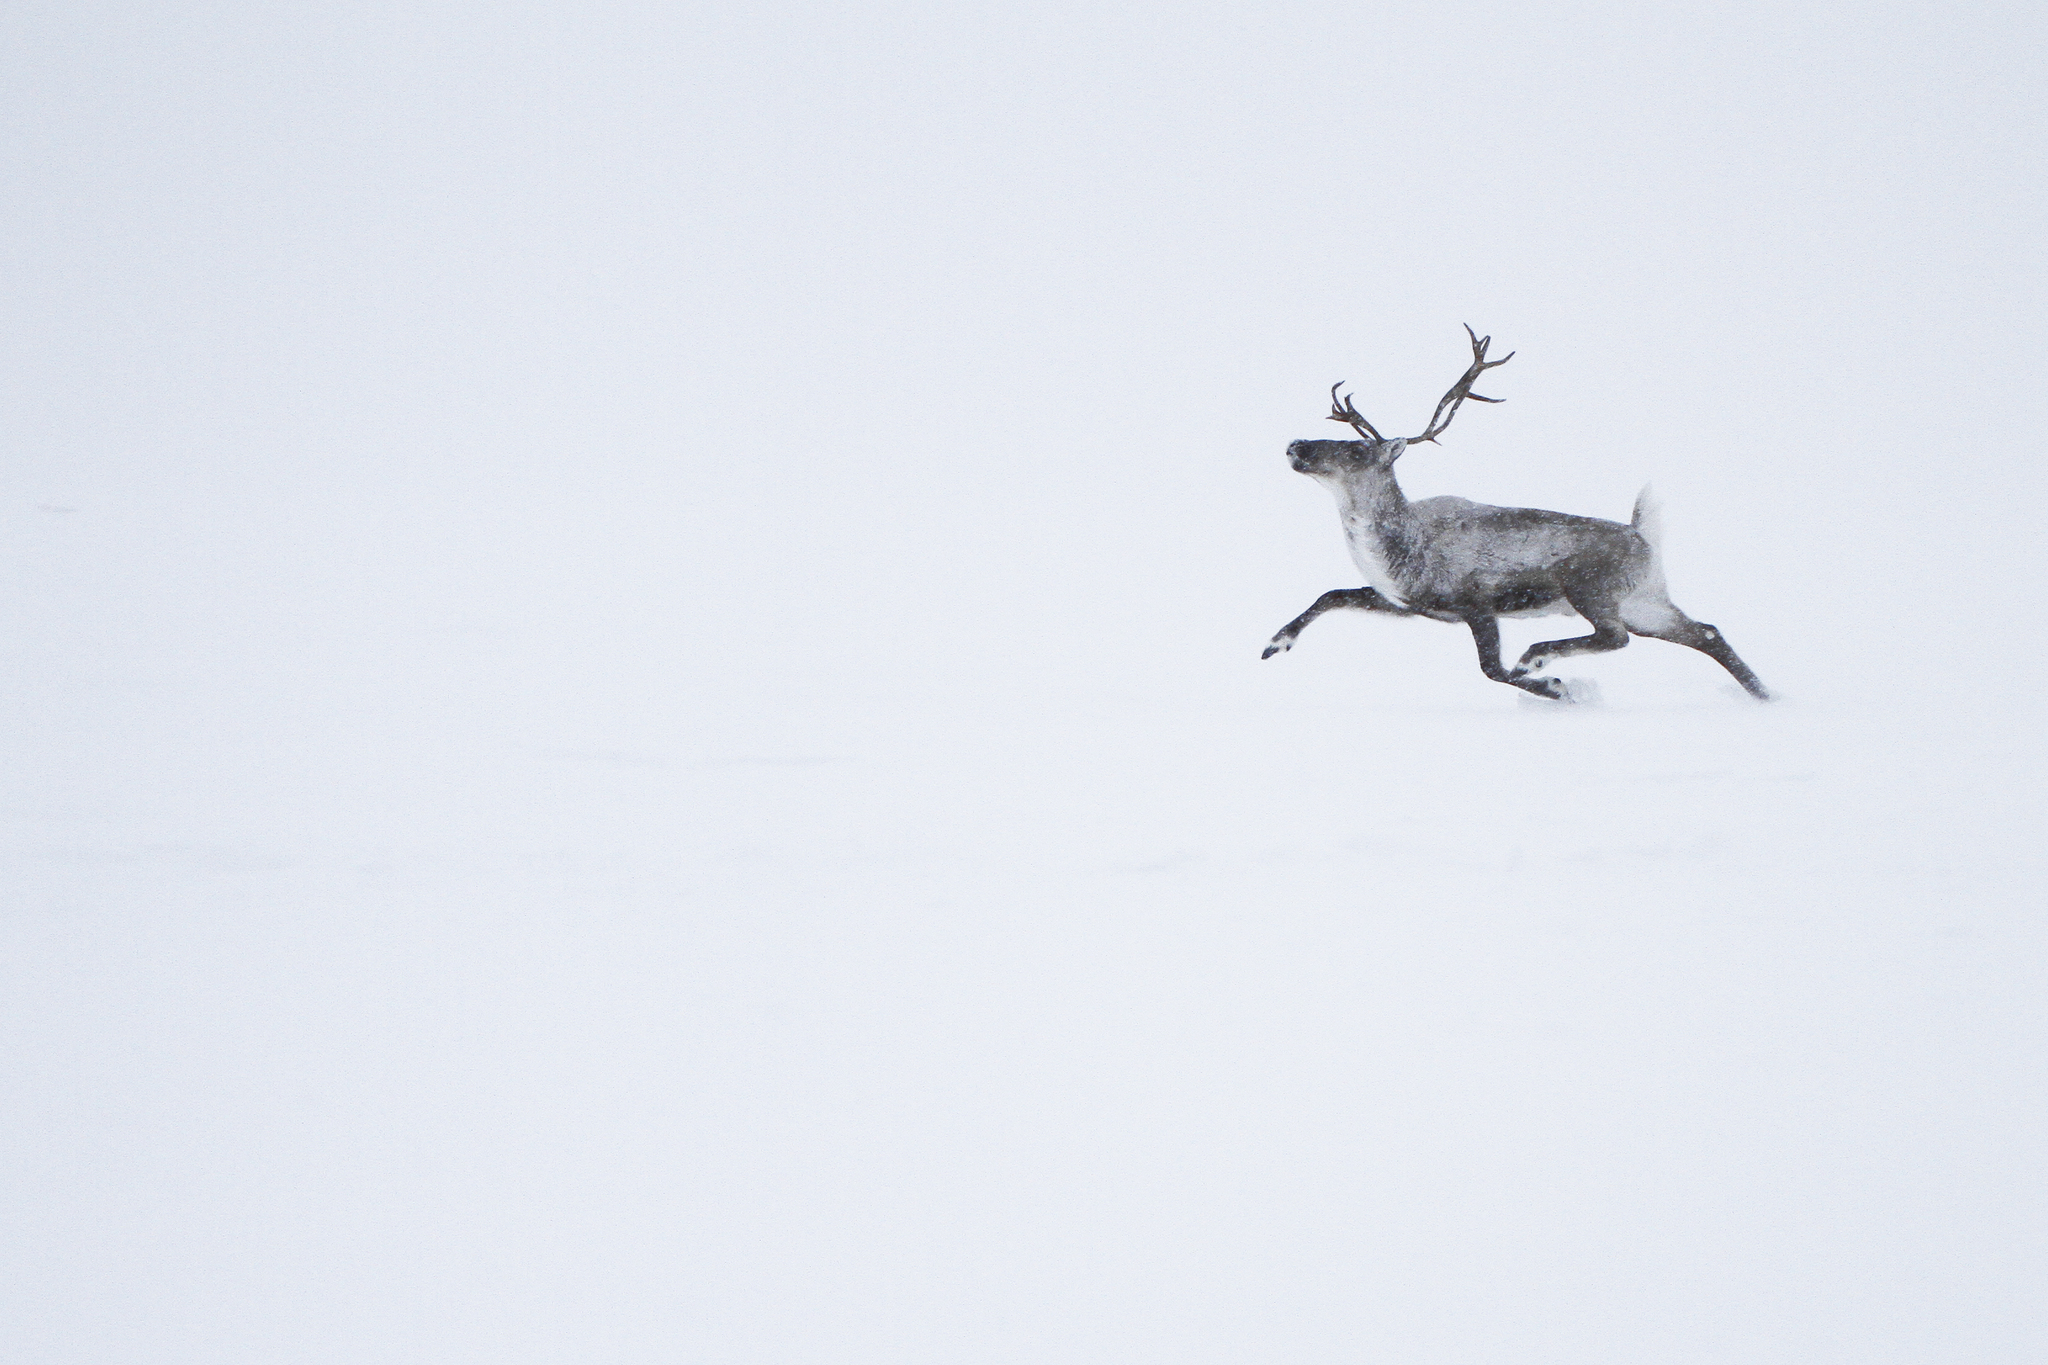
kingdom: Animalia
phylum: Chordata
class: Mammalia
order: Artiodactyla
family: Cervidae
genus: Rangifer
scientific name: Rangifer tarandus
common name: Reindeer
